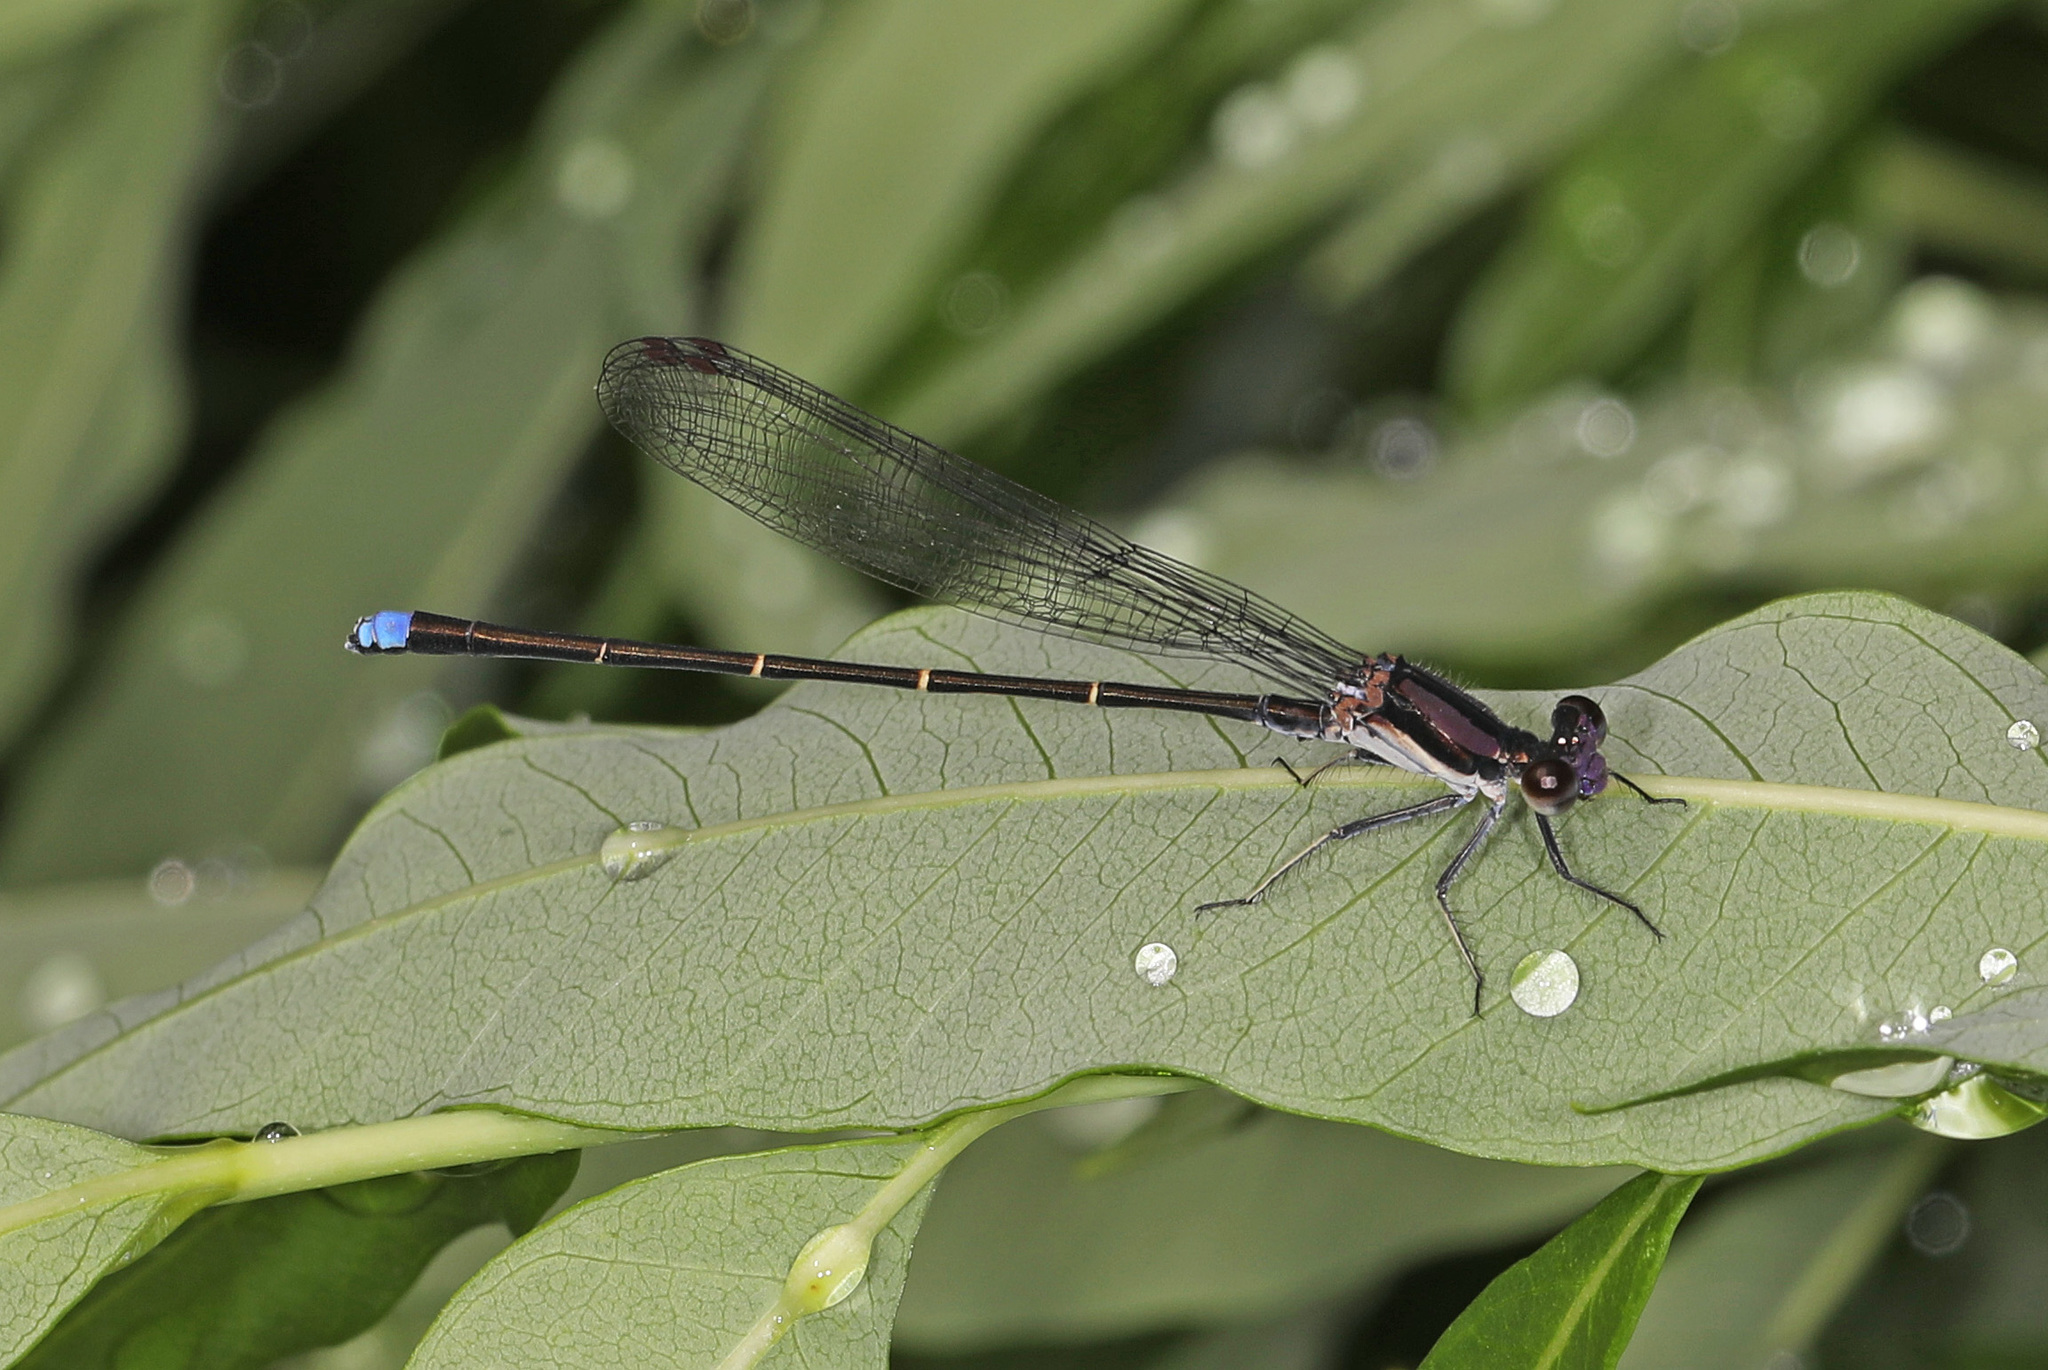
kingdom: Animalia
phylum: Arthropoda
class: Insecta
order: Odonata
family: Coenagrionidae
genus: Argia
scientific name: Argia tibialis
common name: Blue-tipped dancer
